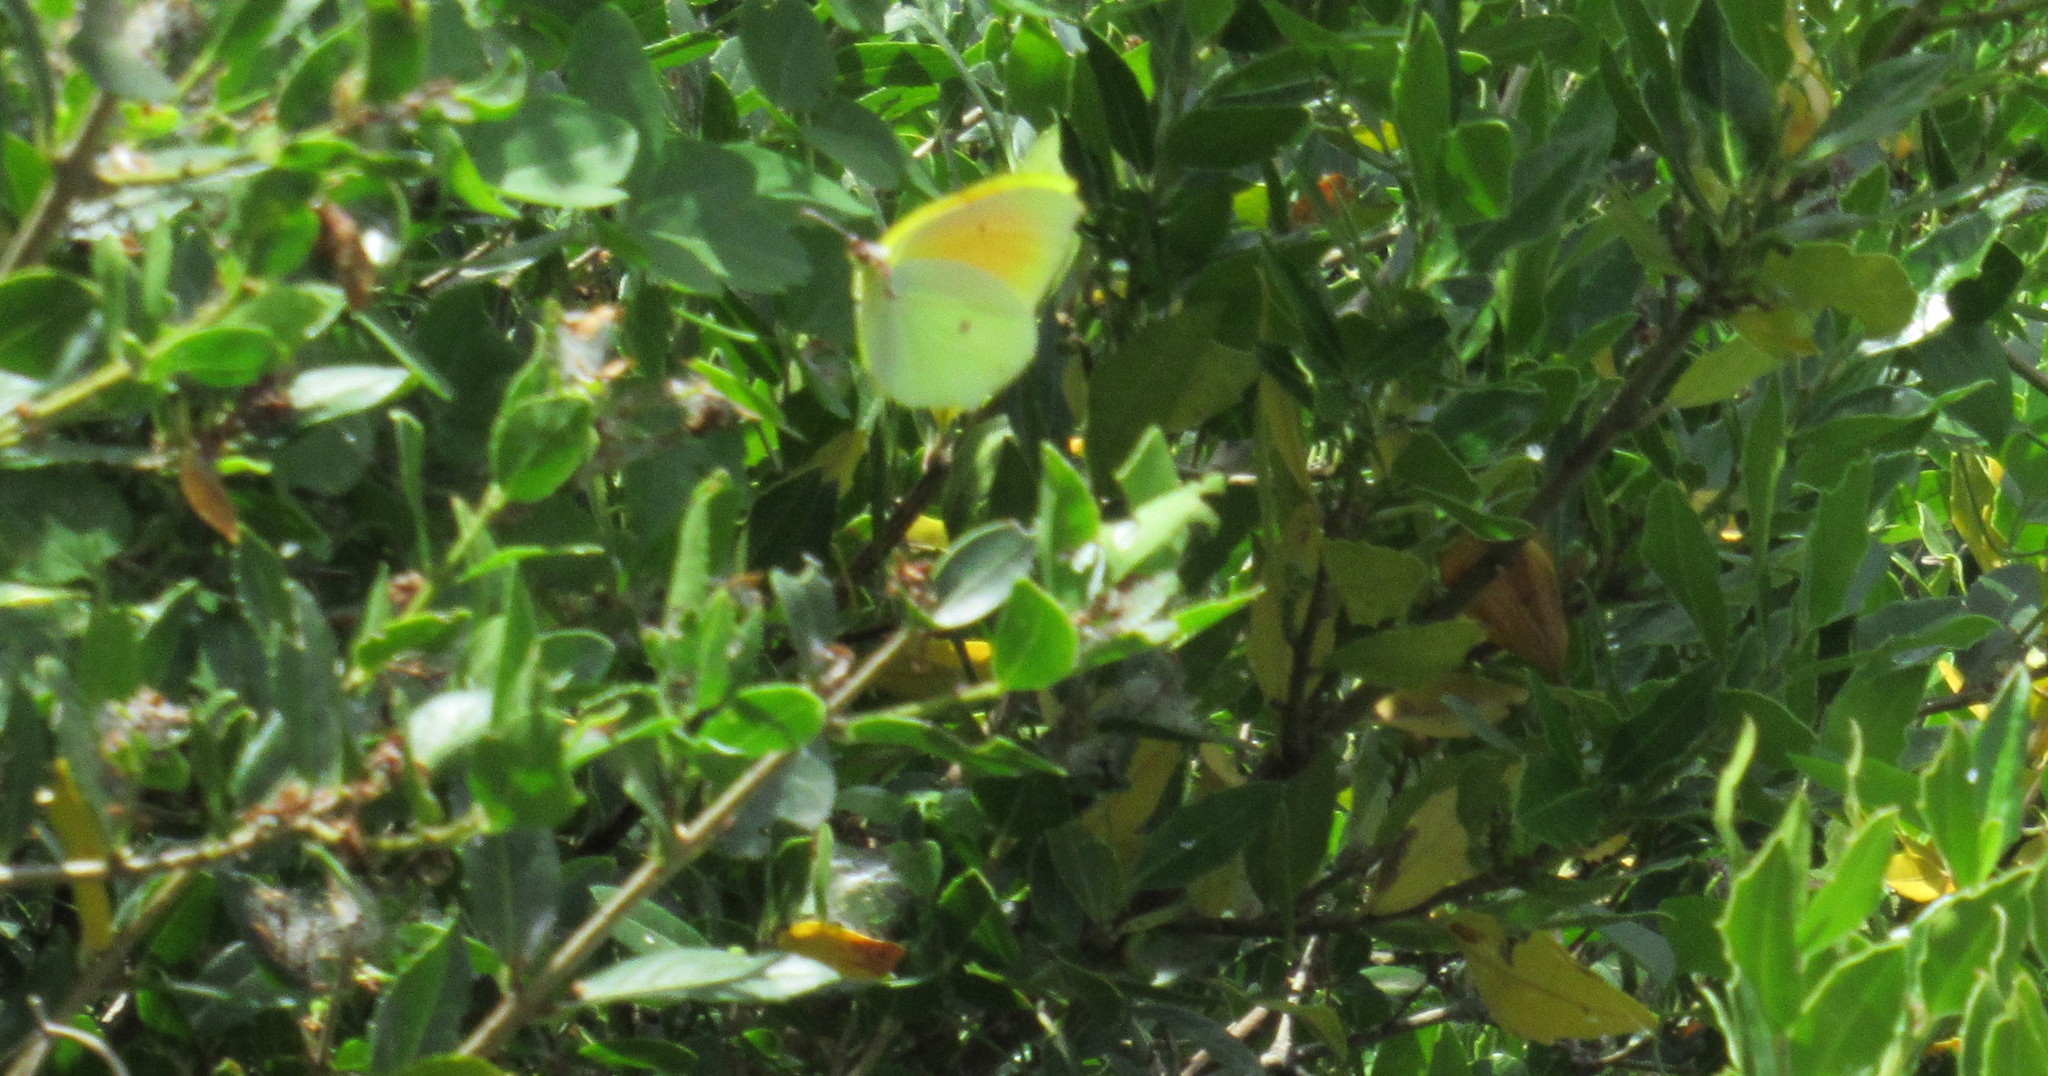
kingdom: Animalia
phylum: Arthropoda
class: Insecta
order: Lepidoptera
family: Pieridae
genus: Gonepteryx
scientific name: Gonepteryx cleopatra
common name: Cleopatra
